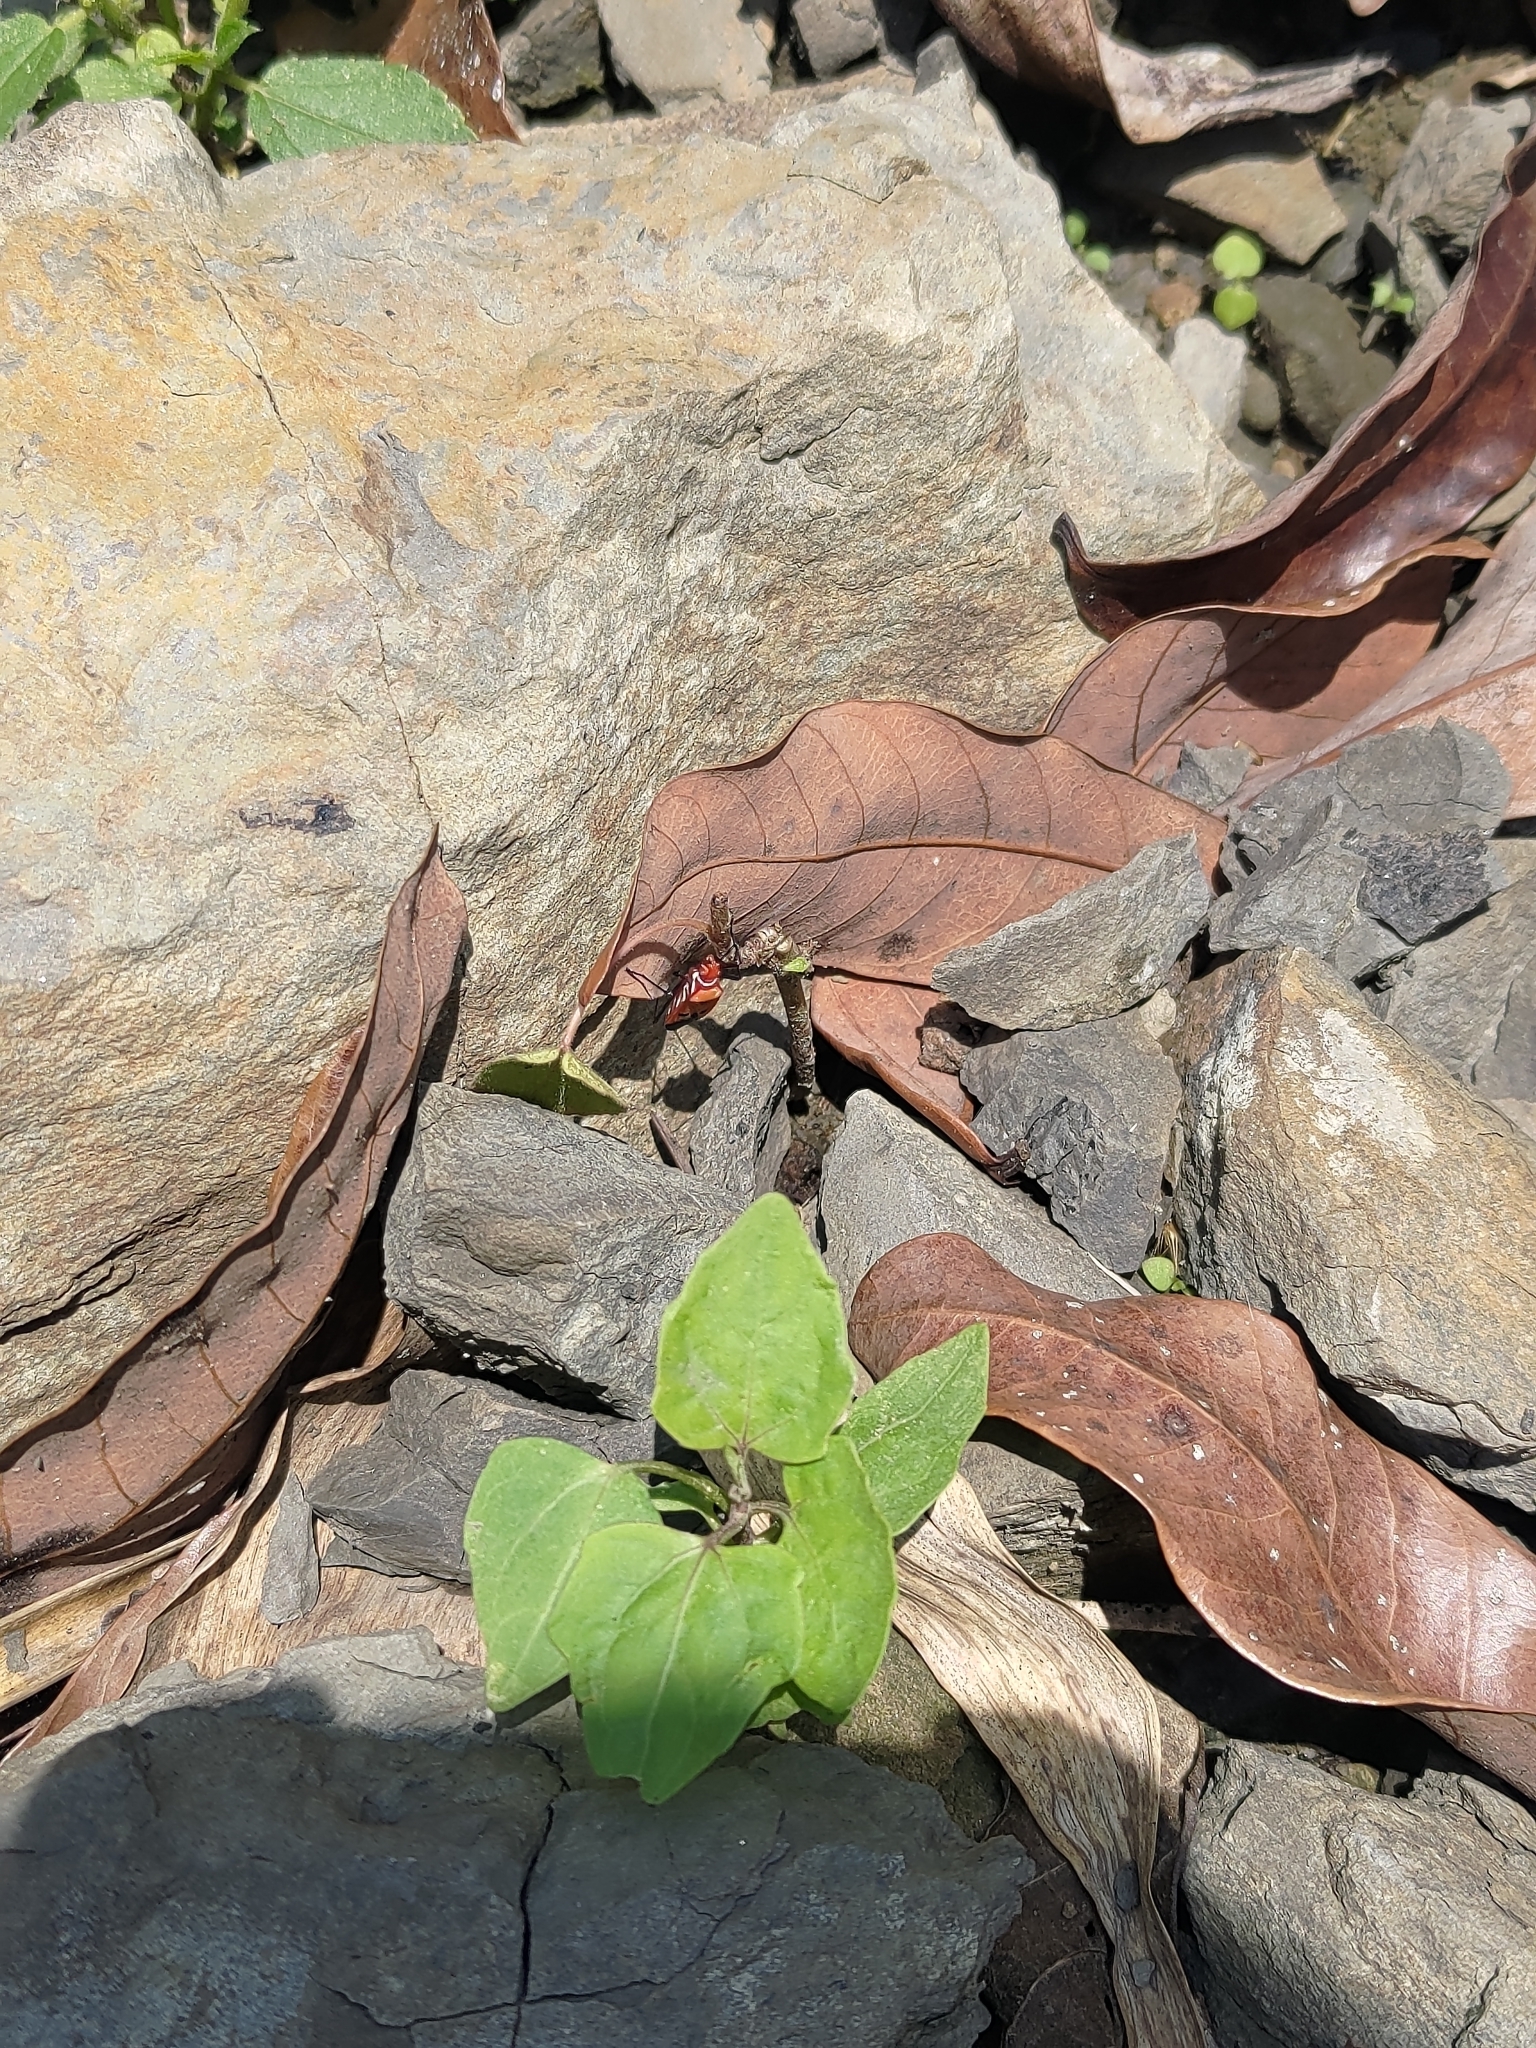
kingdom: Animalia
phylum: Arthropoda
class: Insecta
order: Hemiptera
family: Pyrrhocoridae
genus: Dysdercus
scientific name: Dysdercus cingulatus
